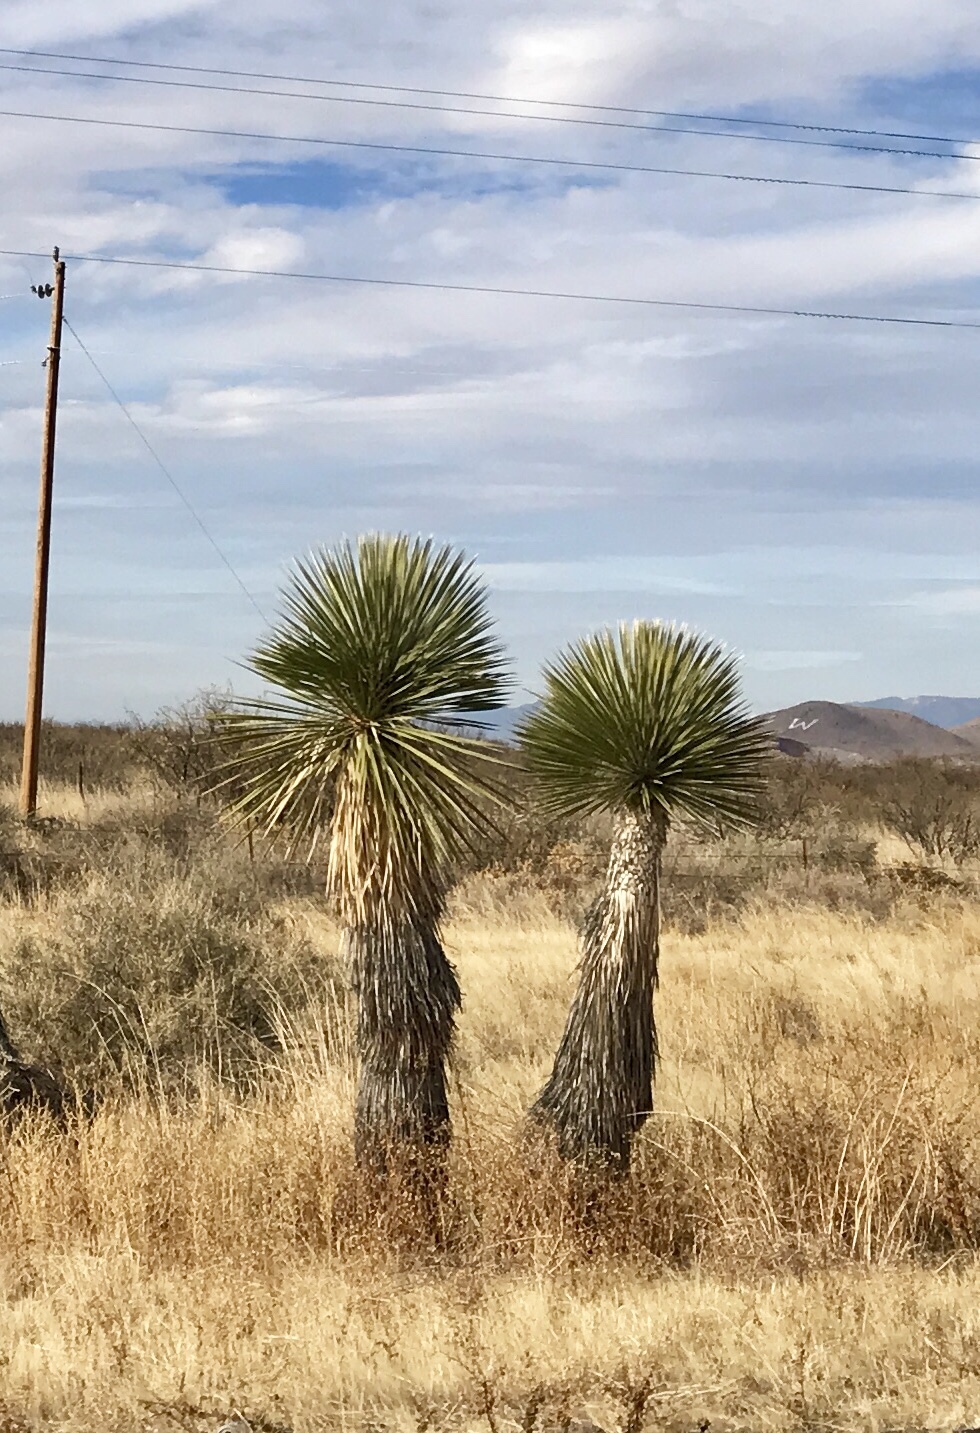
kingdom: Plantae
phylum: Tracheophyta
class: Liliopsida
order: Asparagales
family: Asparagaceae
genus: Yucca
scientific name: Yucca elata
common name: Palmella
